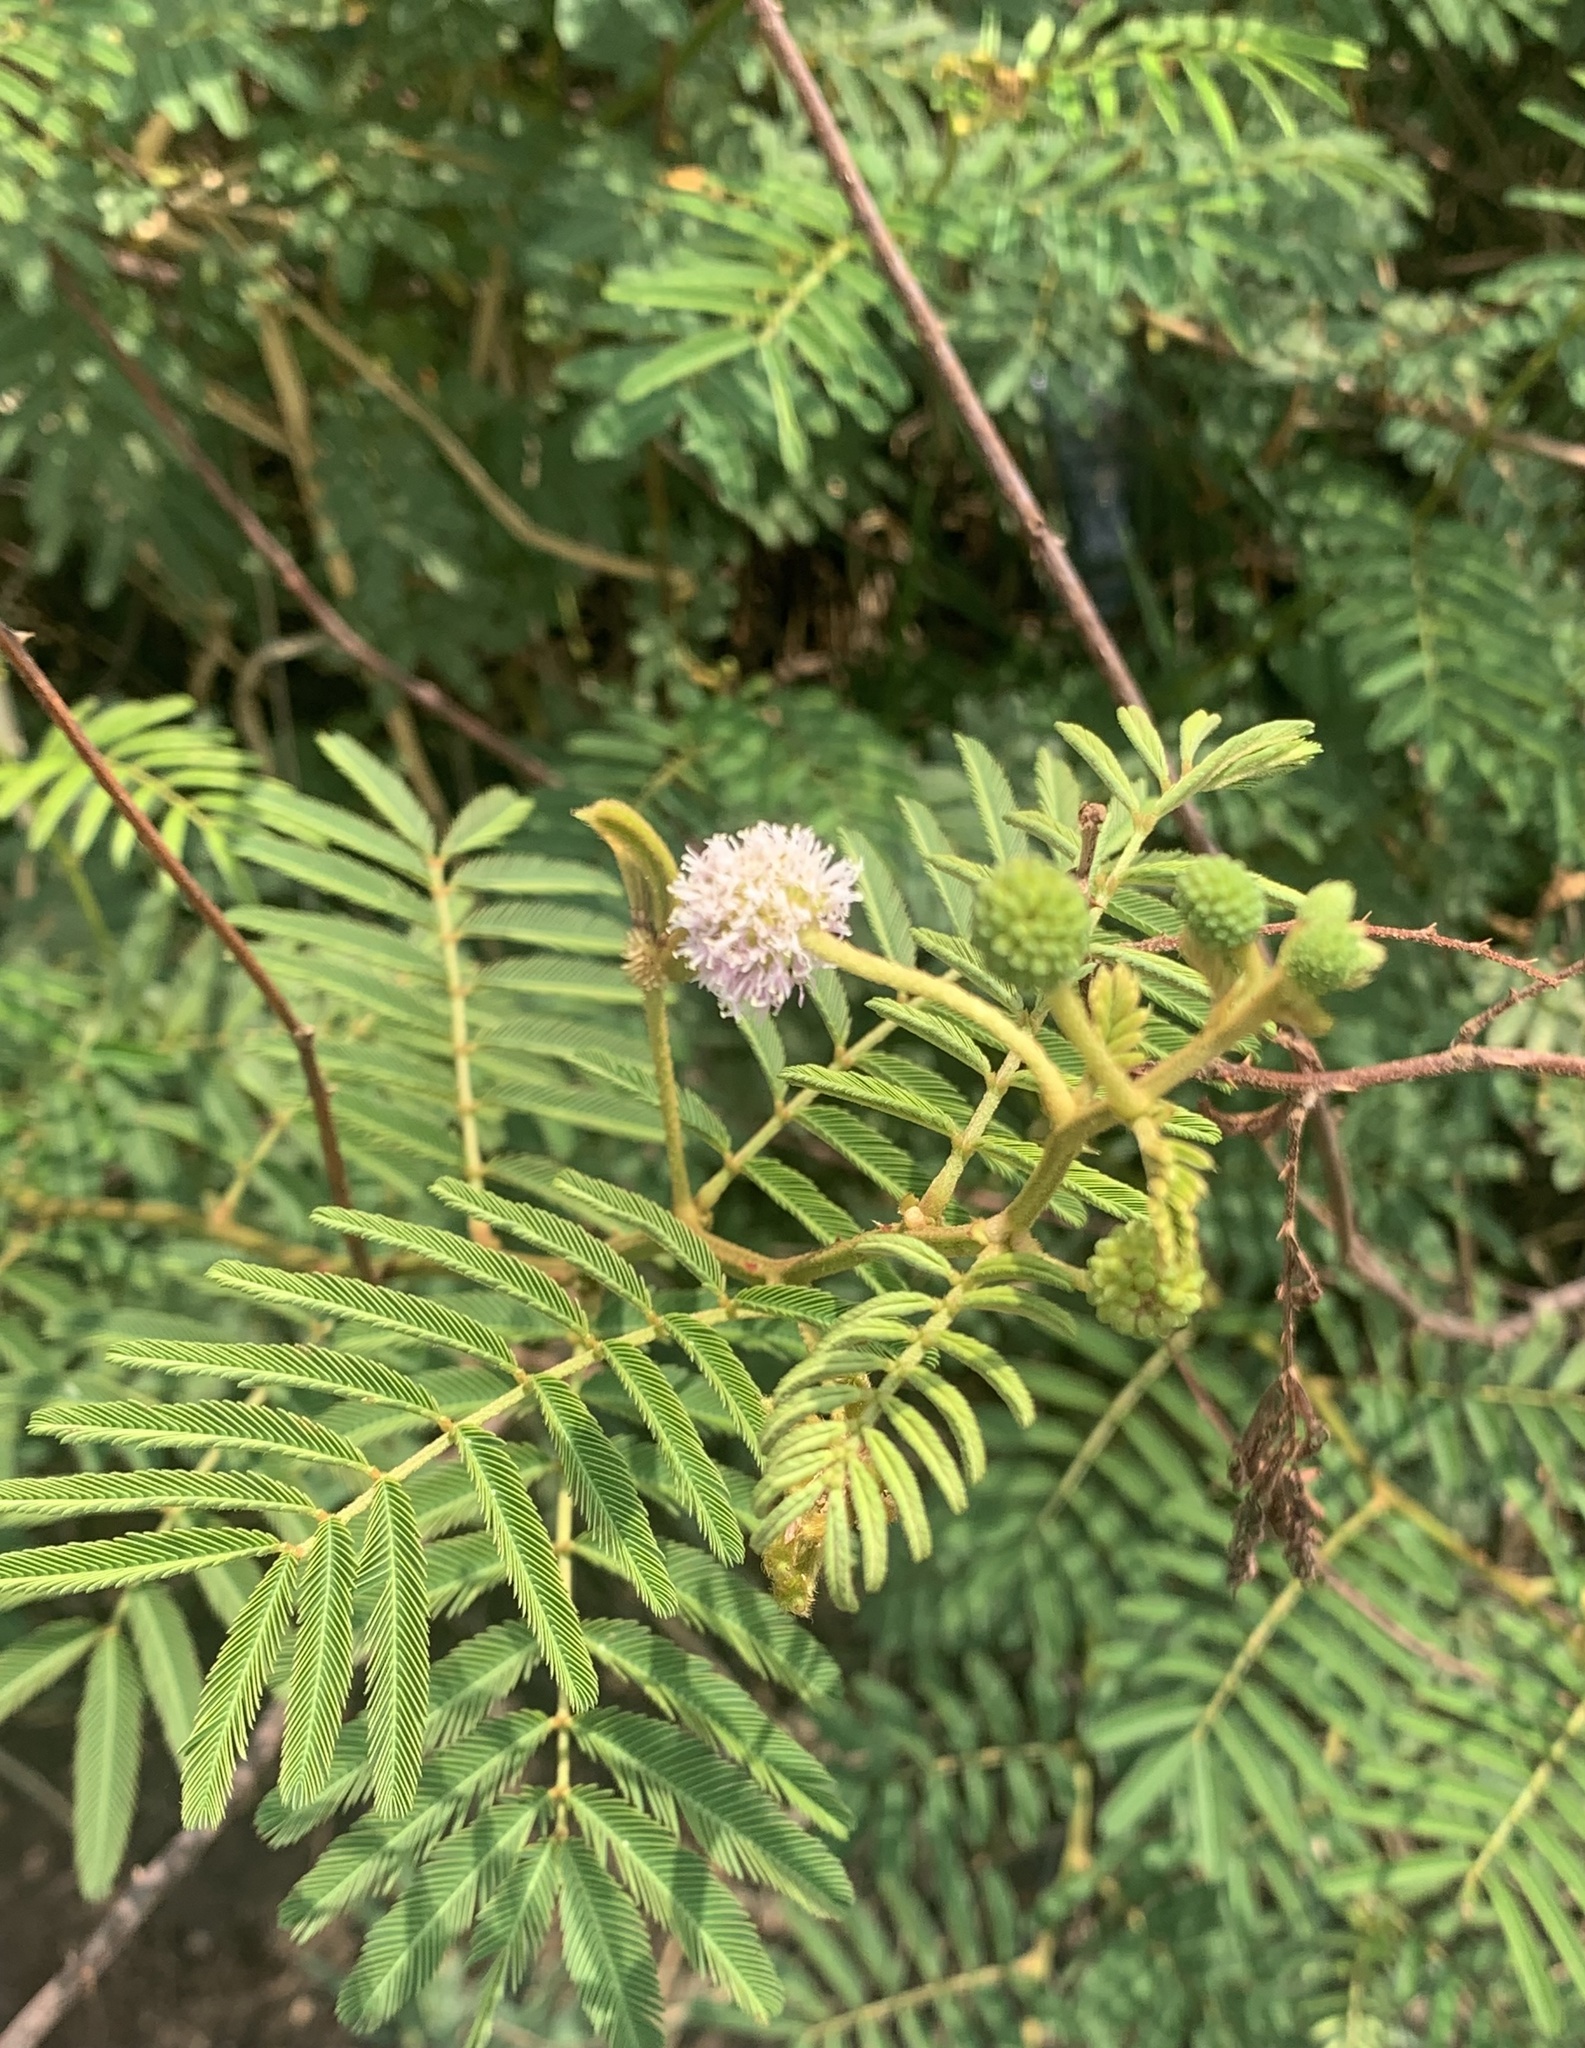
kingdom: Plantae
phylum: Tracheophyta
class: Magnoliopsida
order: Fabales
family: Fabaceae
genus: Mimosa
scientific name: Mimosa pigra
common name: Black mimosa
